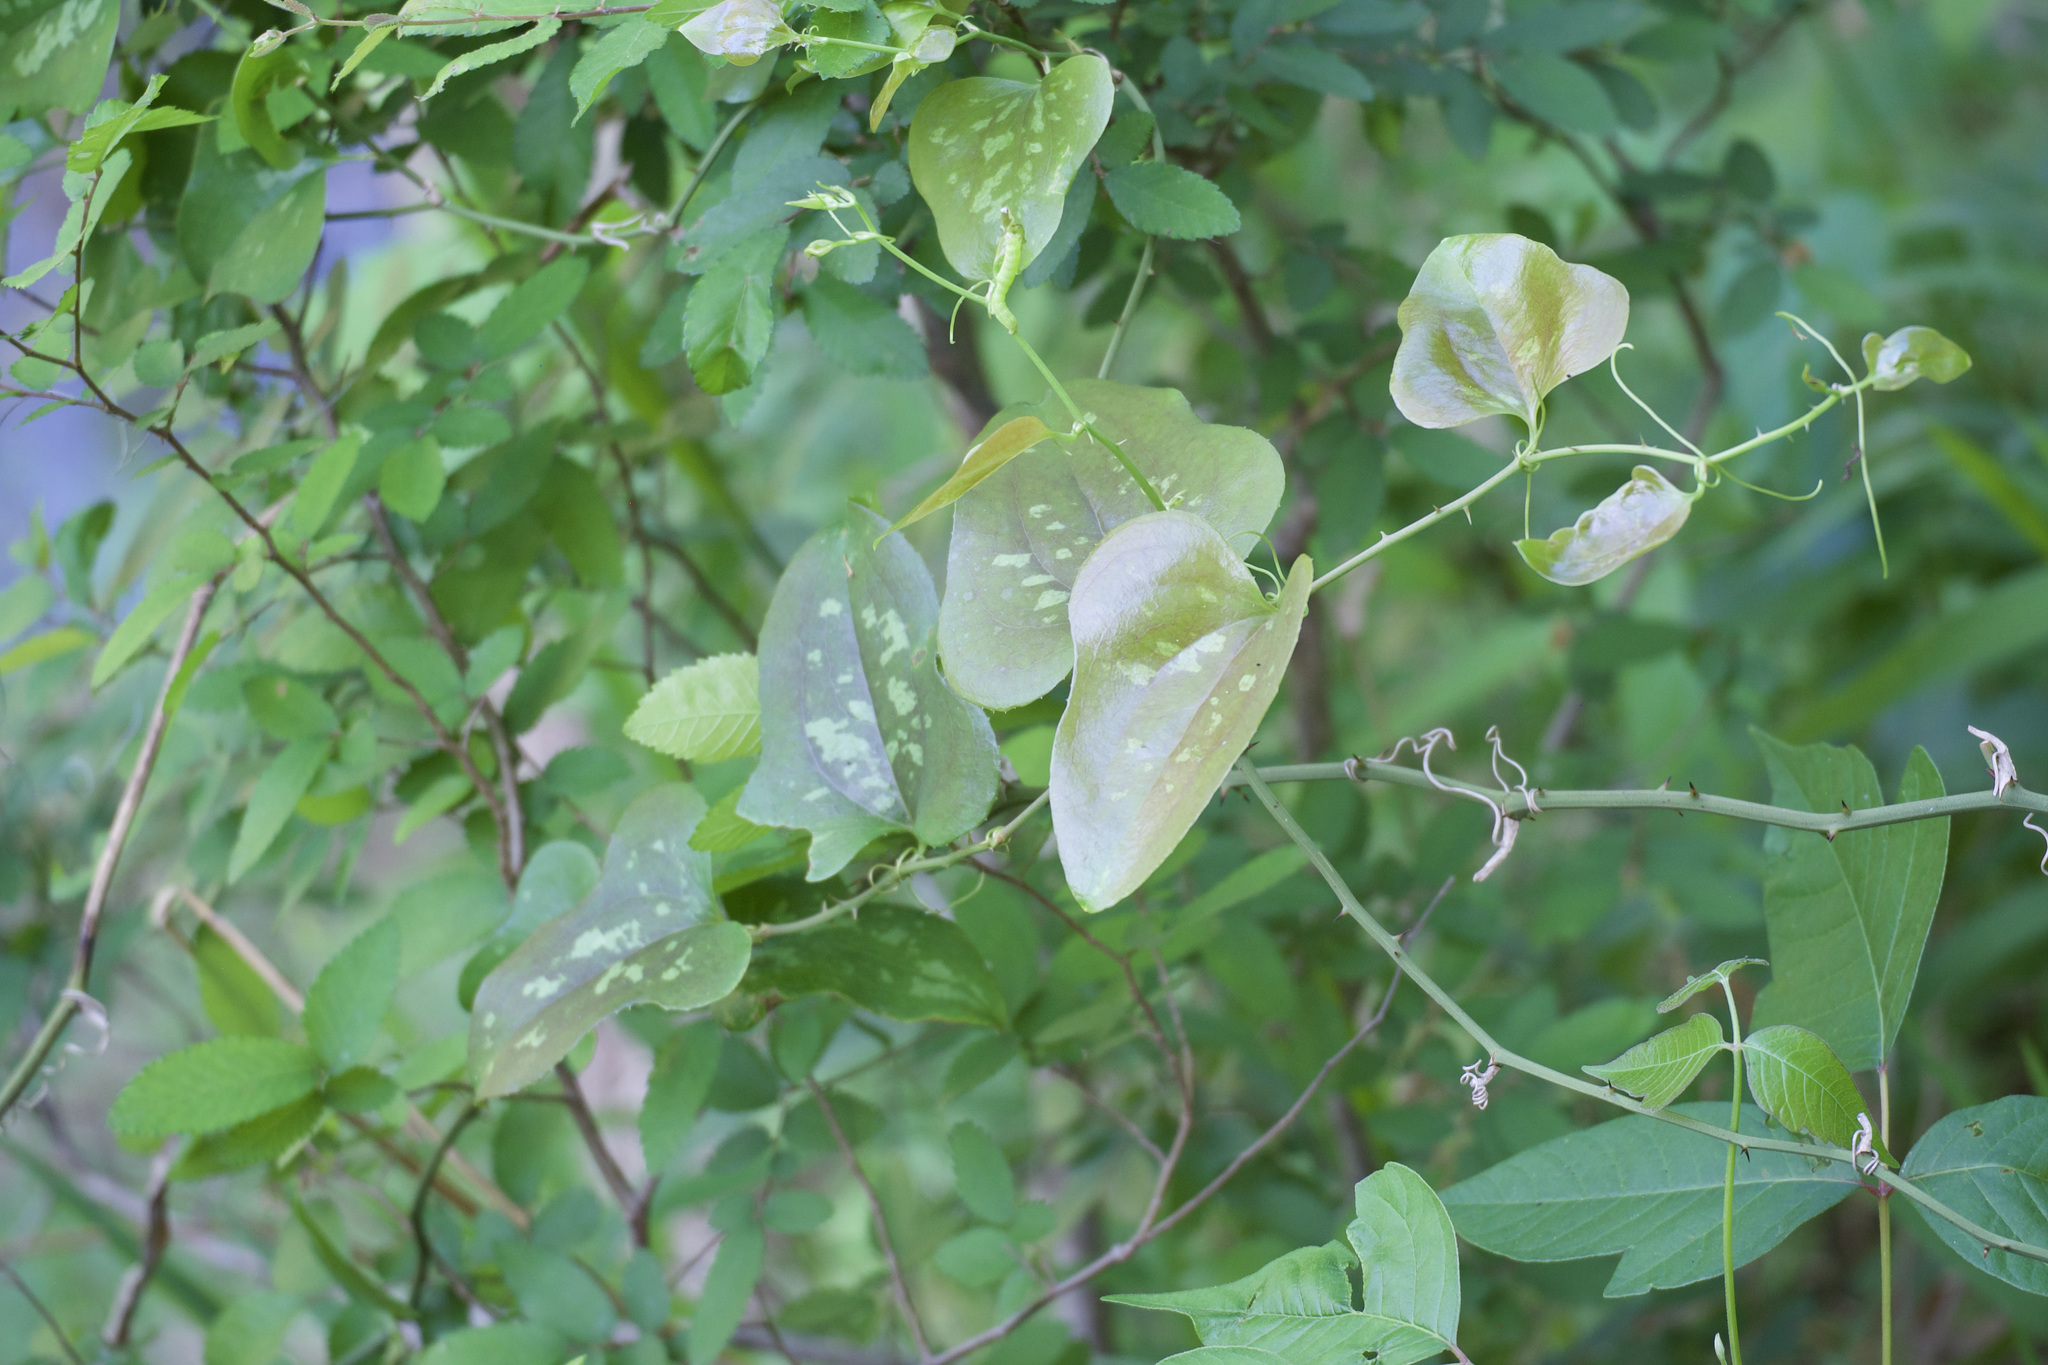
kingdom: Plantae
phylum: Tracheophyta
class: Liliopsida
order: Liliales
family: Smilacaceae
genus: Smilax
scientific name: Smilax bona-nox
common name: Catbrier
